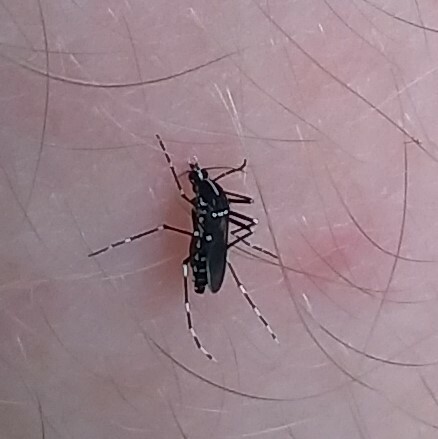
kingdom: Animalia
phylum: Arthropoda
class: Insecta
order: Diptera
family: Culicidae
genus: Aedes
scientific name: Aedes albopictus
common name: Tiger mosquito
